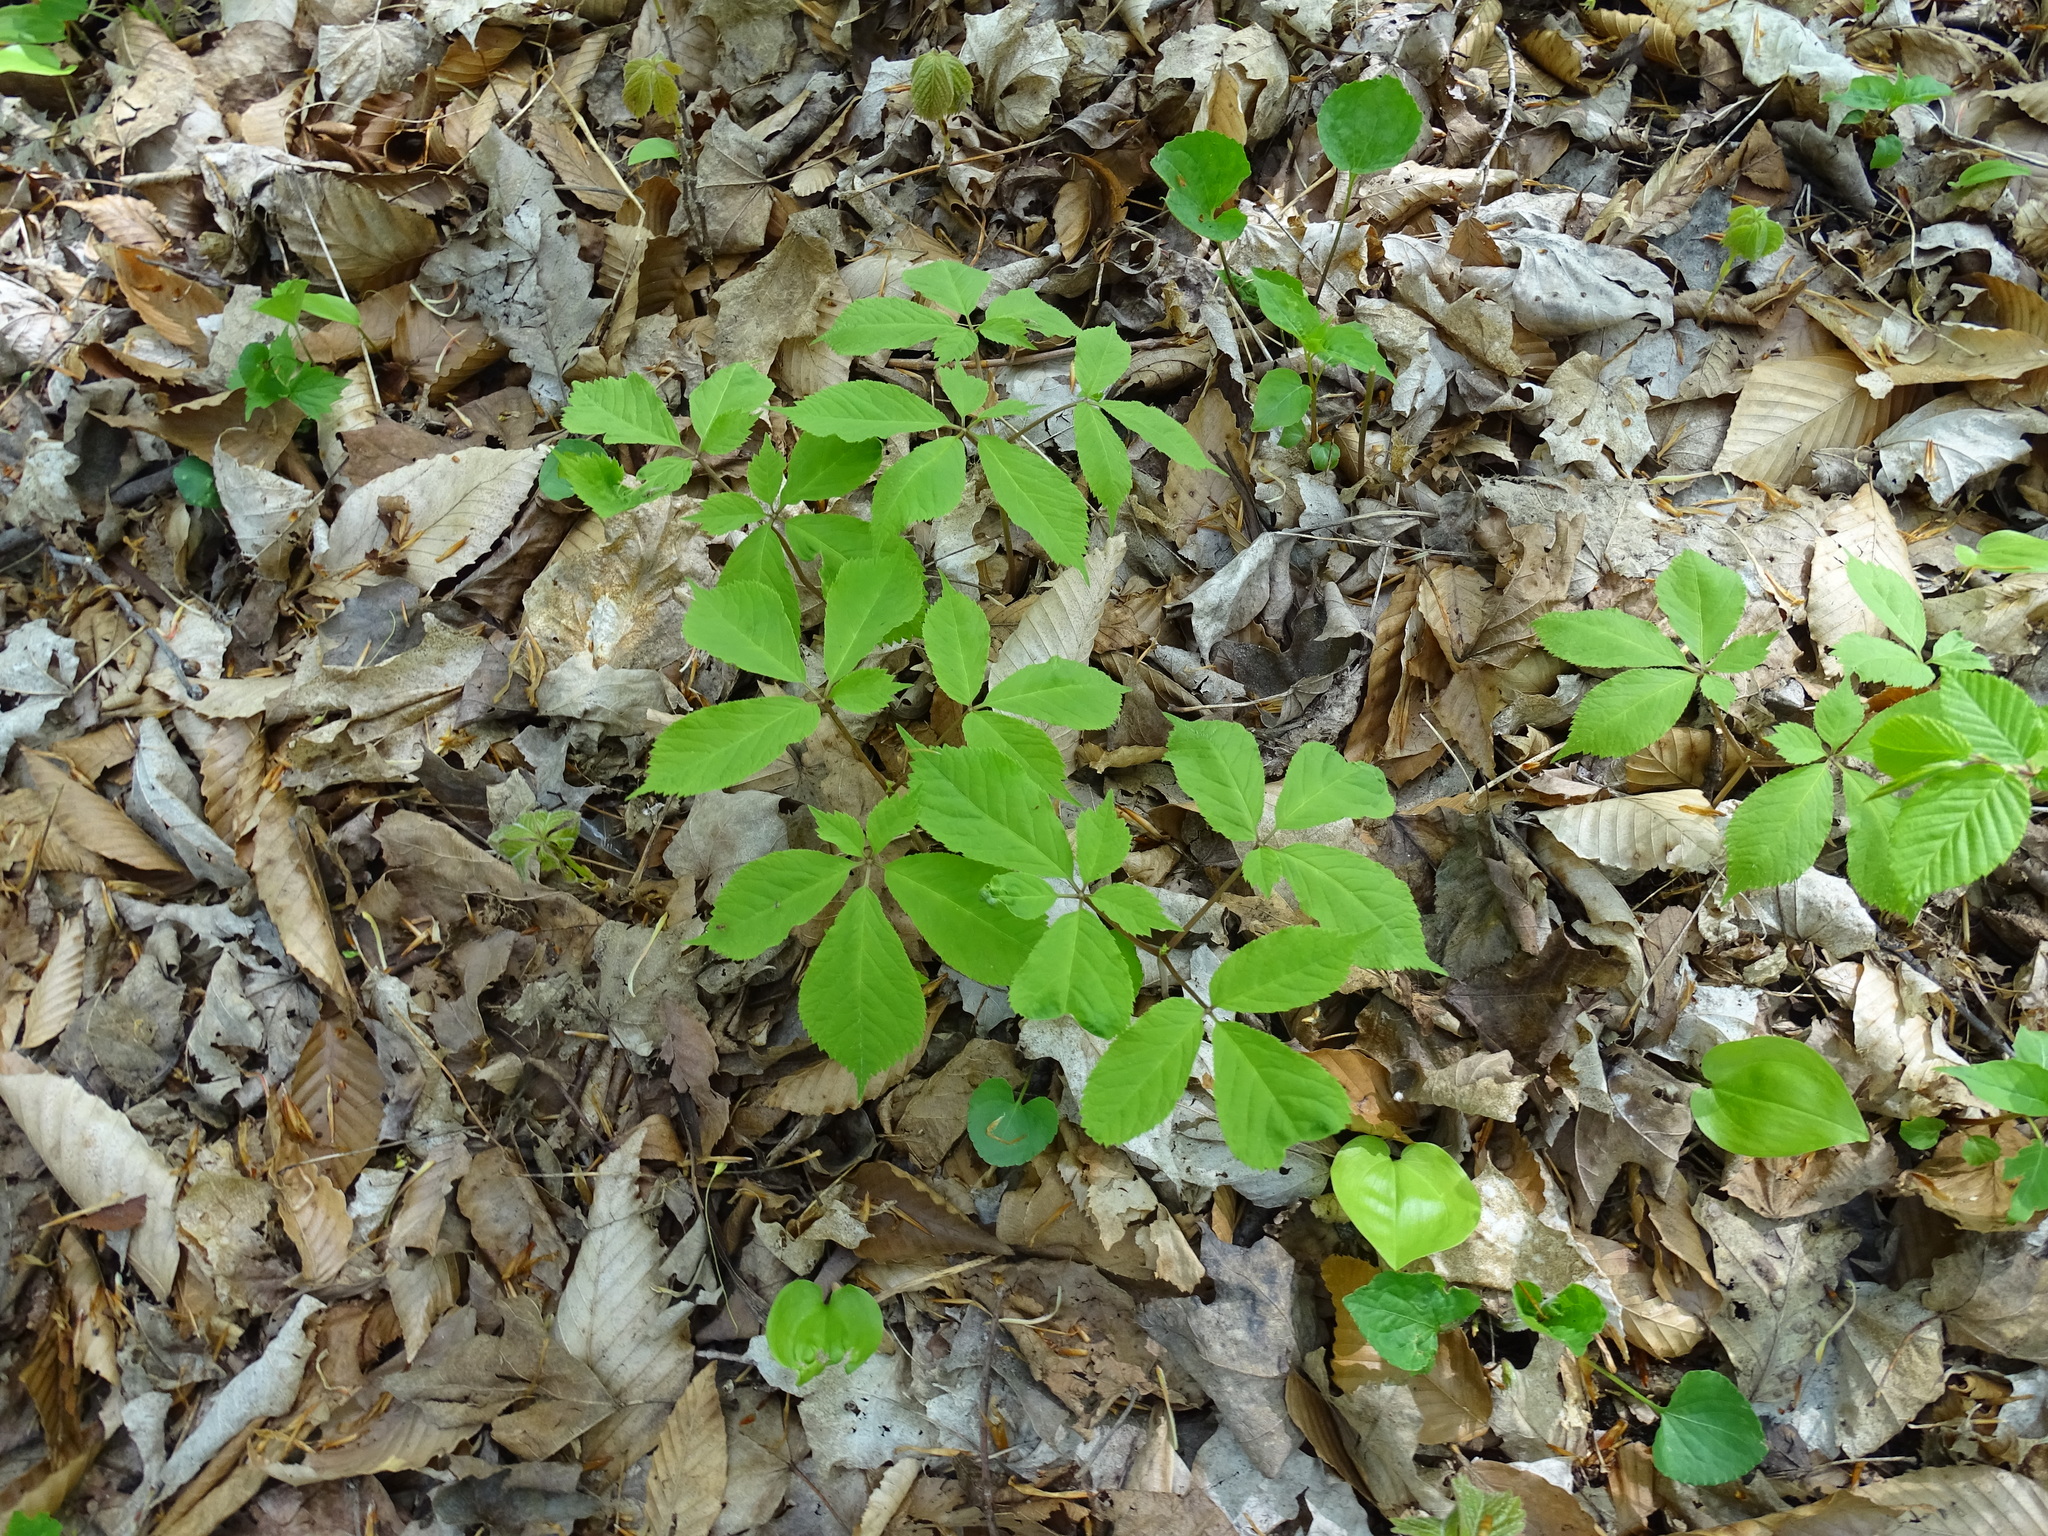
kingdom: Plantae
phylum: Tracheophyta
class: Magnoliopsida
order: Apiales
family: Araliaceae
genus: Panax
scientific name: Panax quinquefolius
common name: American ginseng
